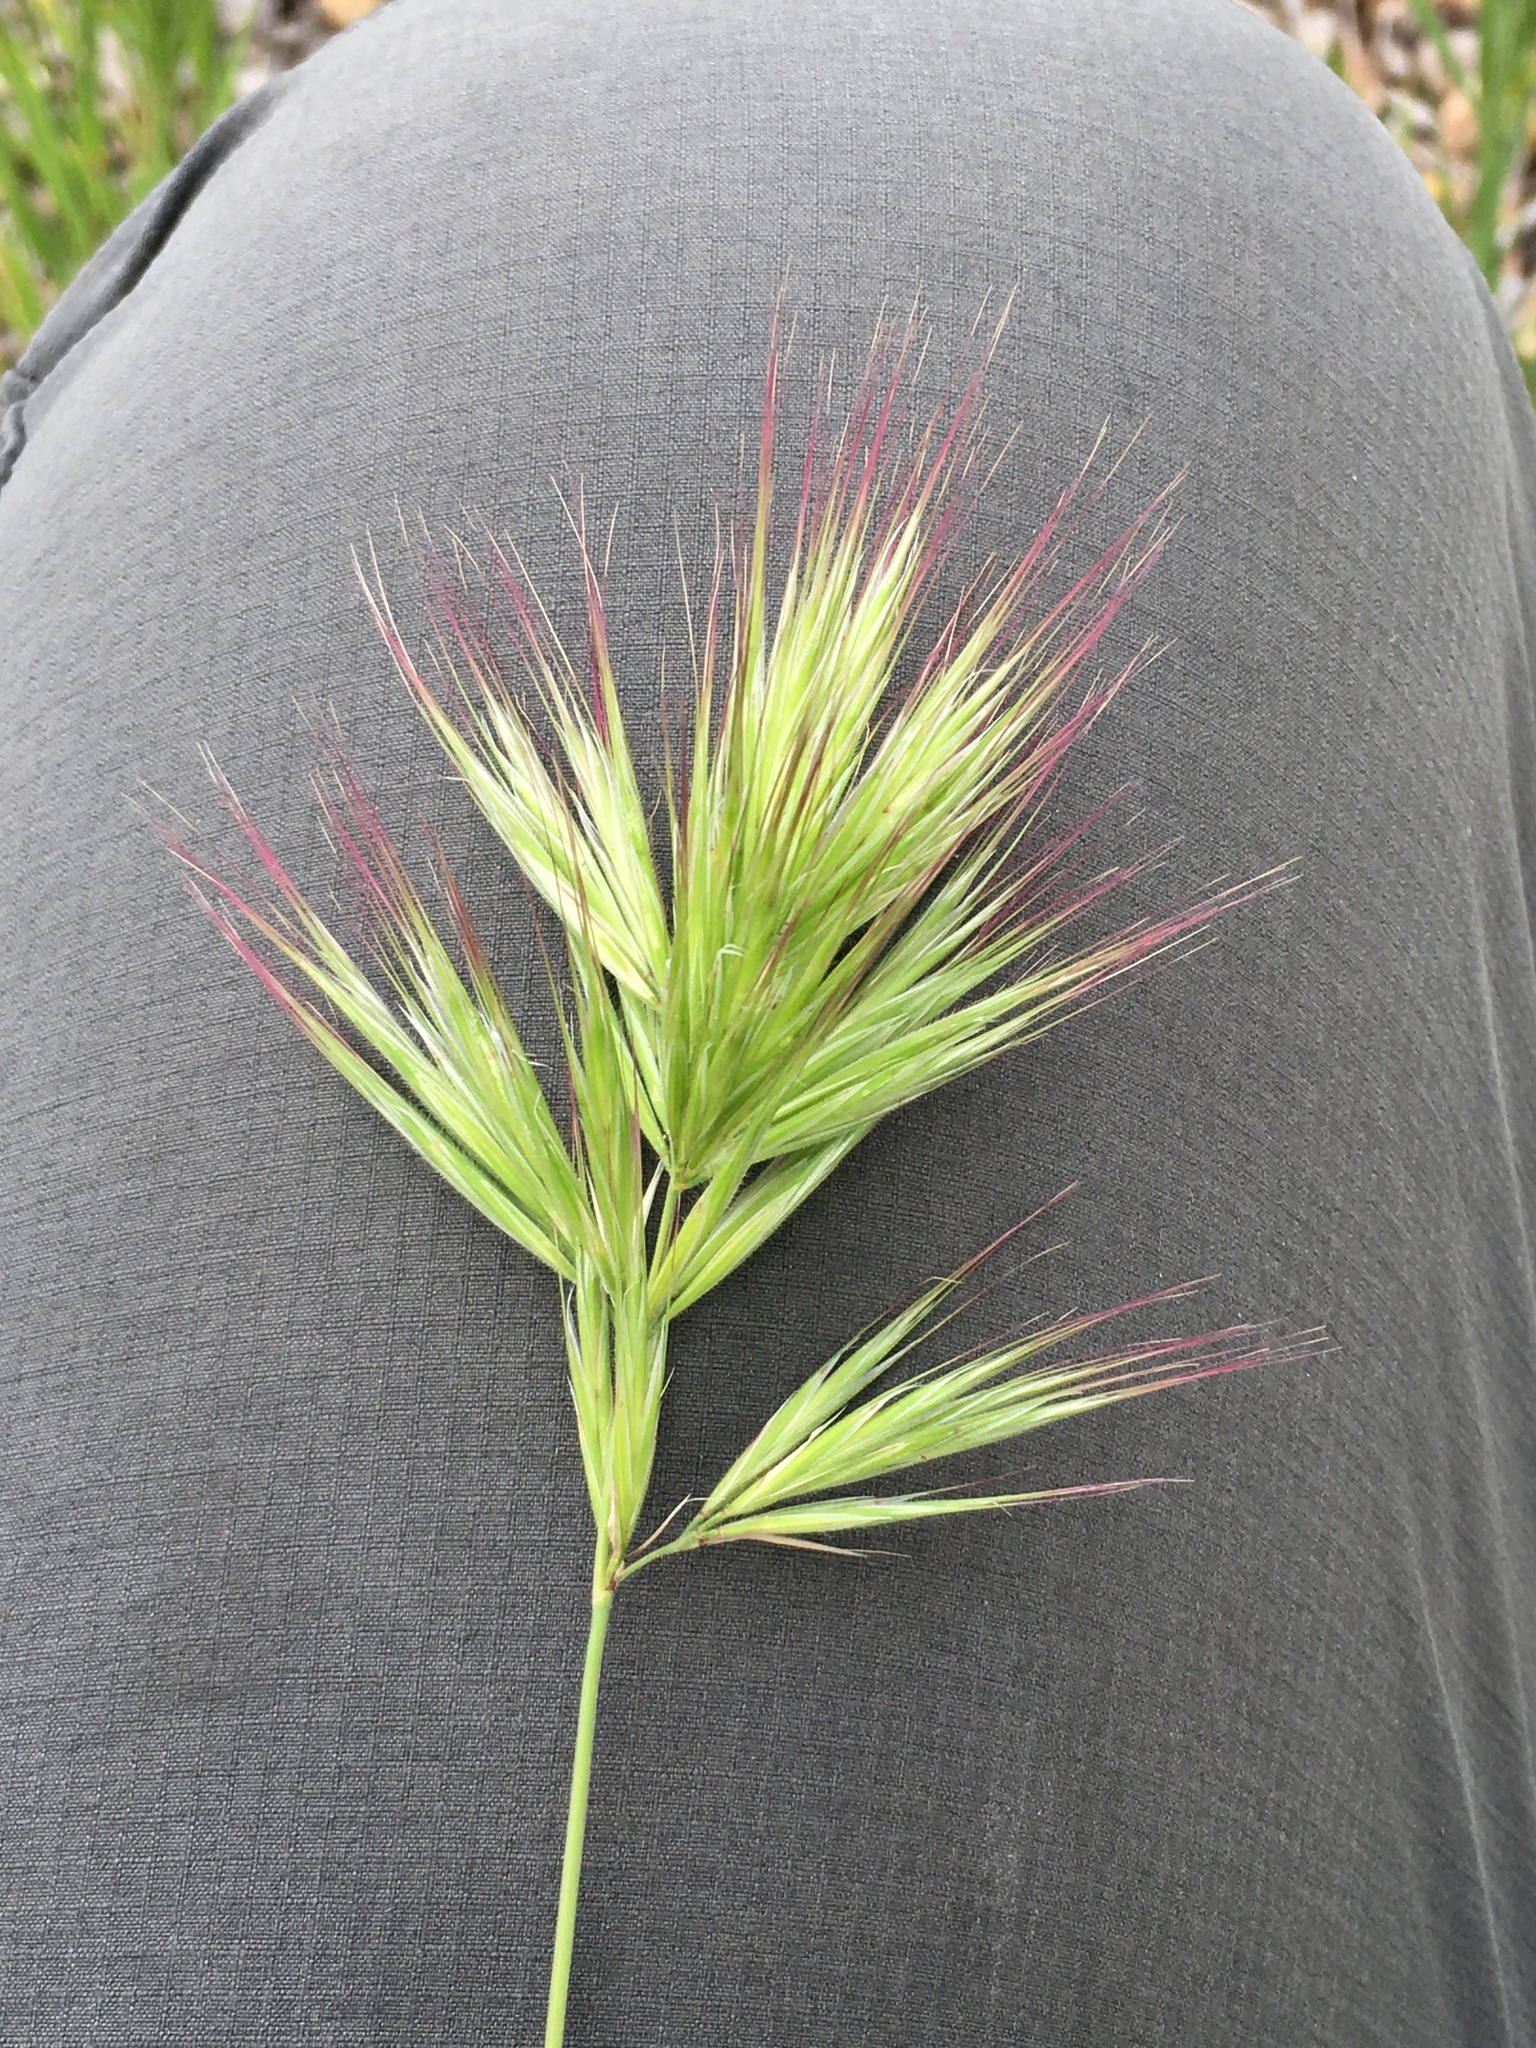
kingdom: Plantae
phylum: Tracheophyta
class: Liliopsida
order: Poales
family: Poaceae
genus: Bromus
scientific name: Bromus rubens
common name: Red brome
